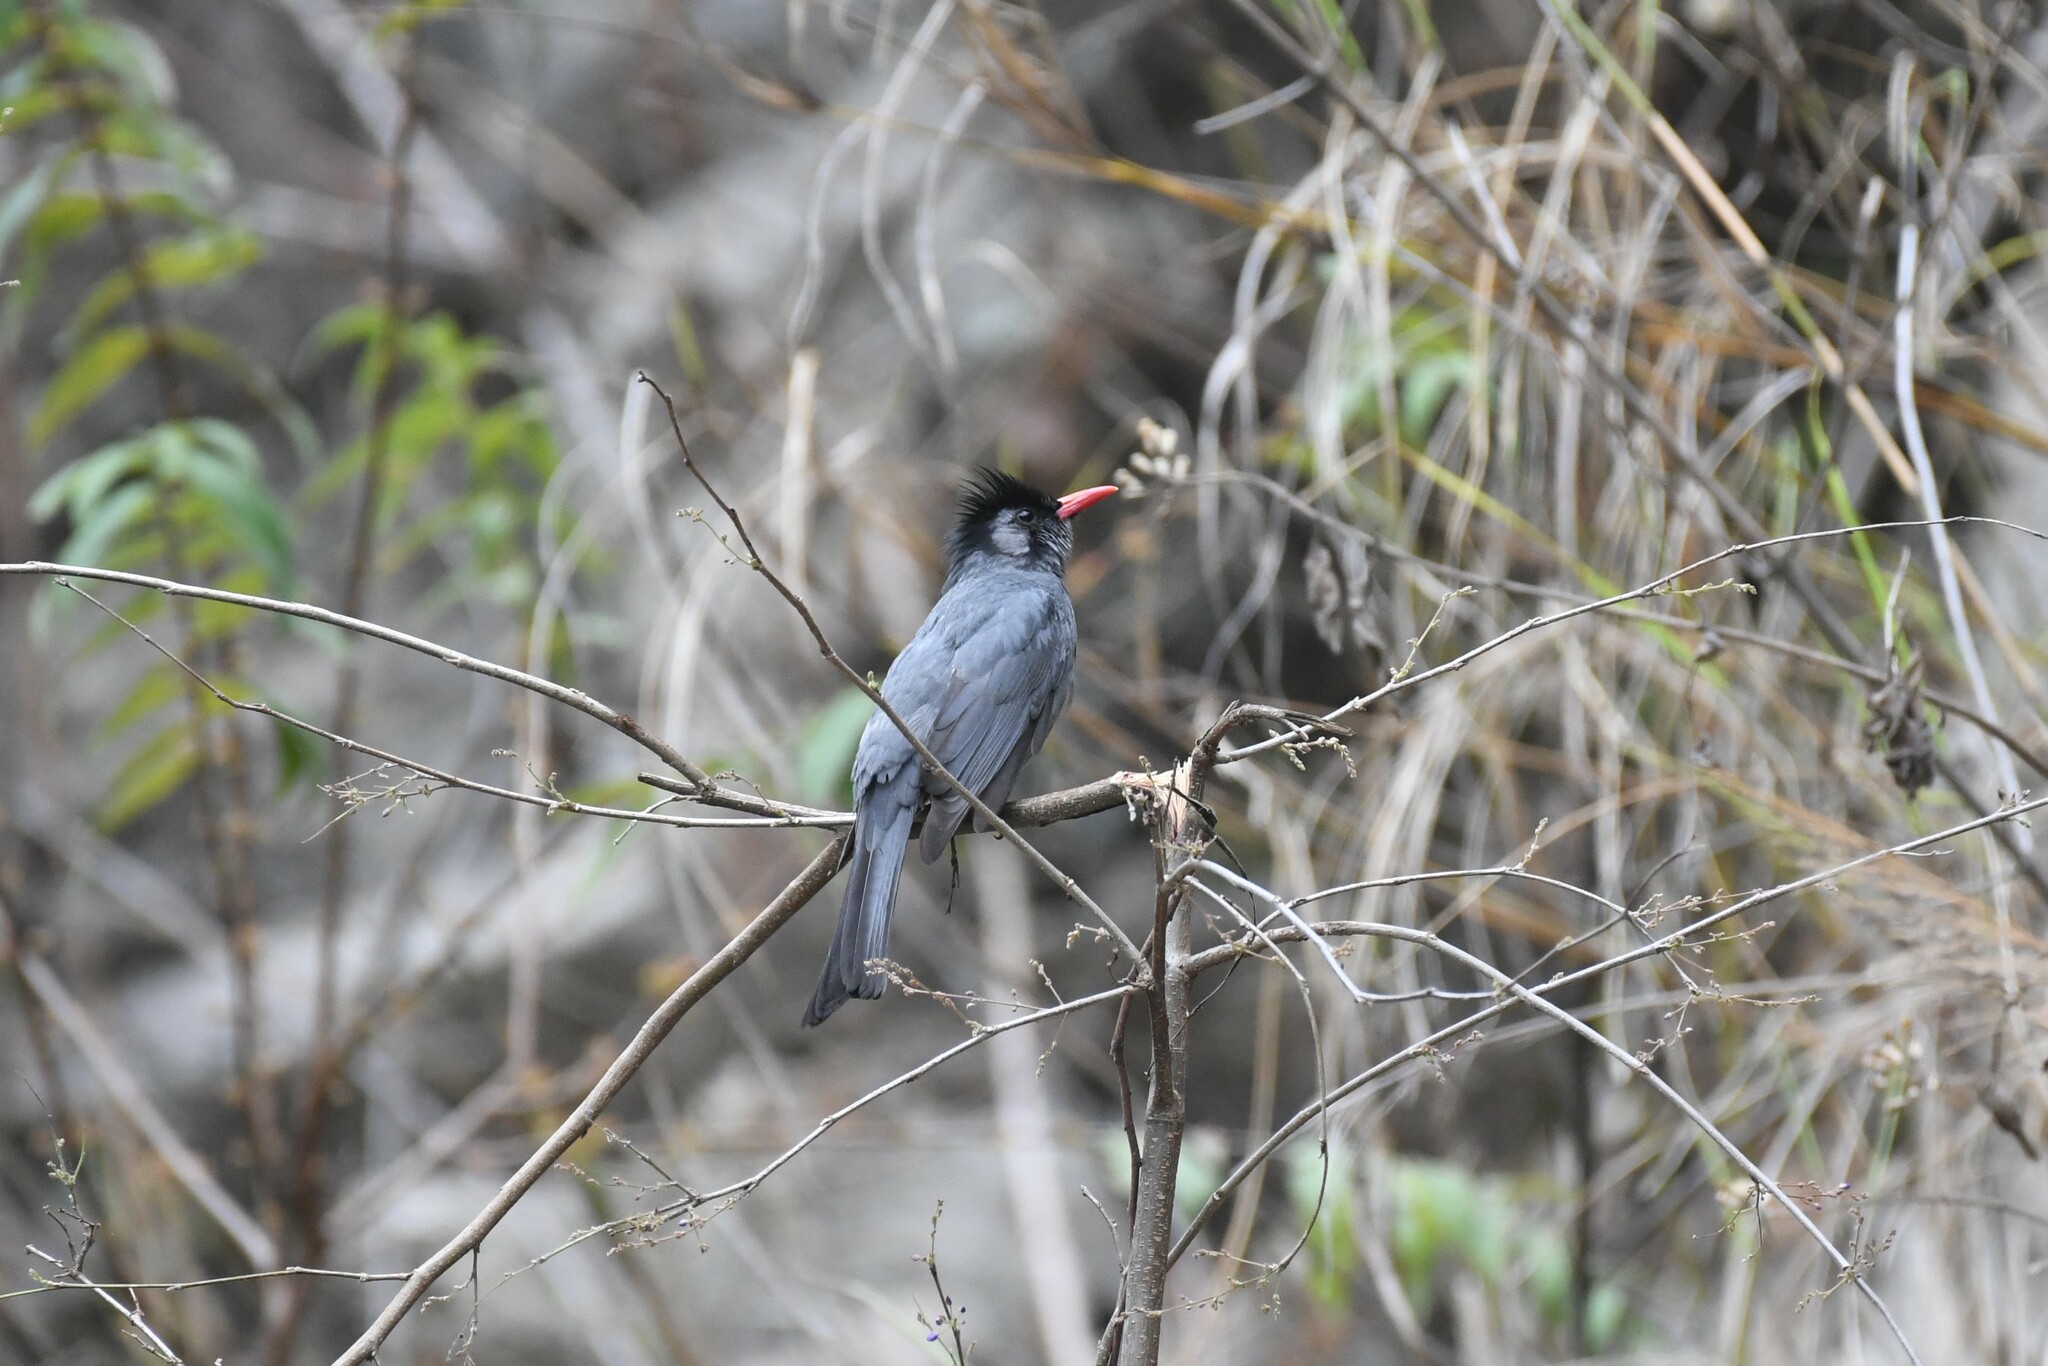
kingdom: Animalia
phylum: Chordata
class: Aves
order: Passeriformes
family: Pycnonotidae
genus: Hypsipetes
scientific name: Hypsipetes leucocephalus
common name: Black bulbul
